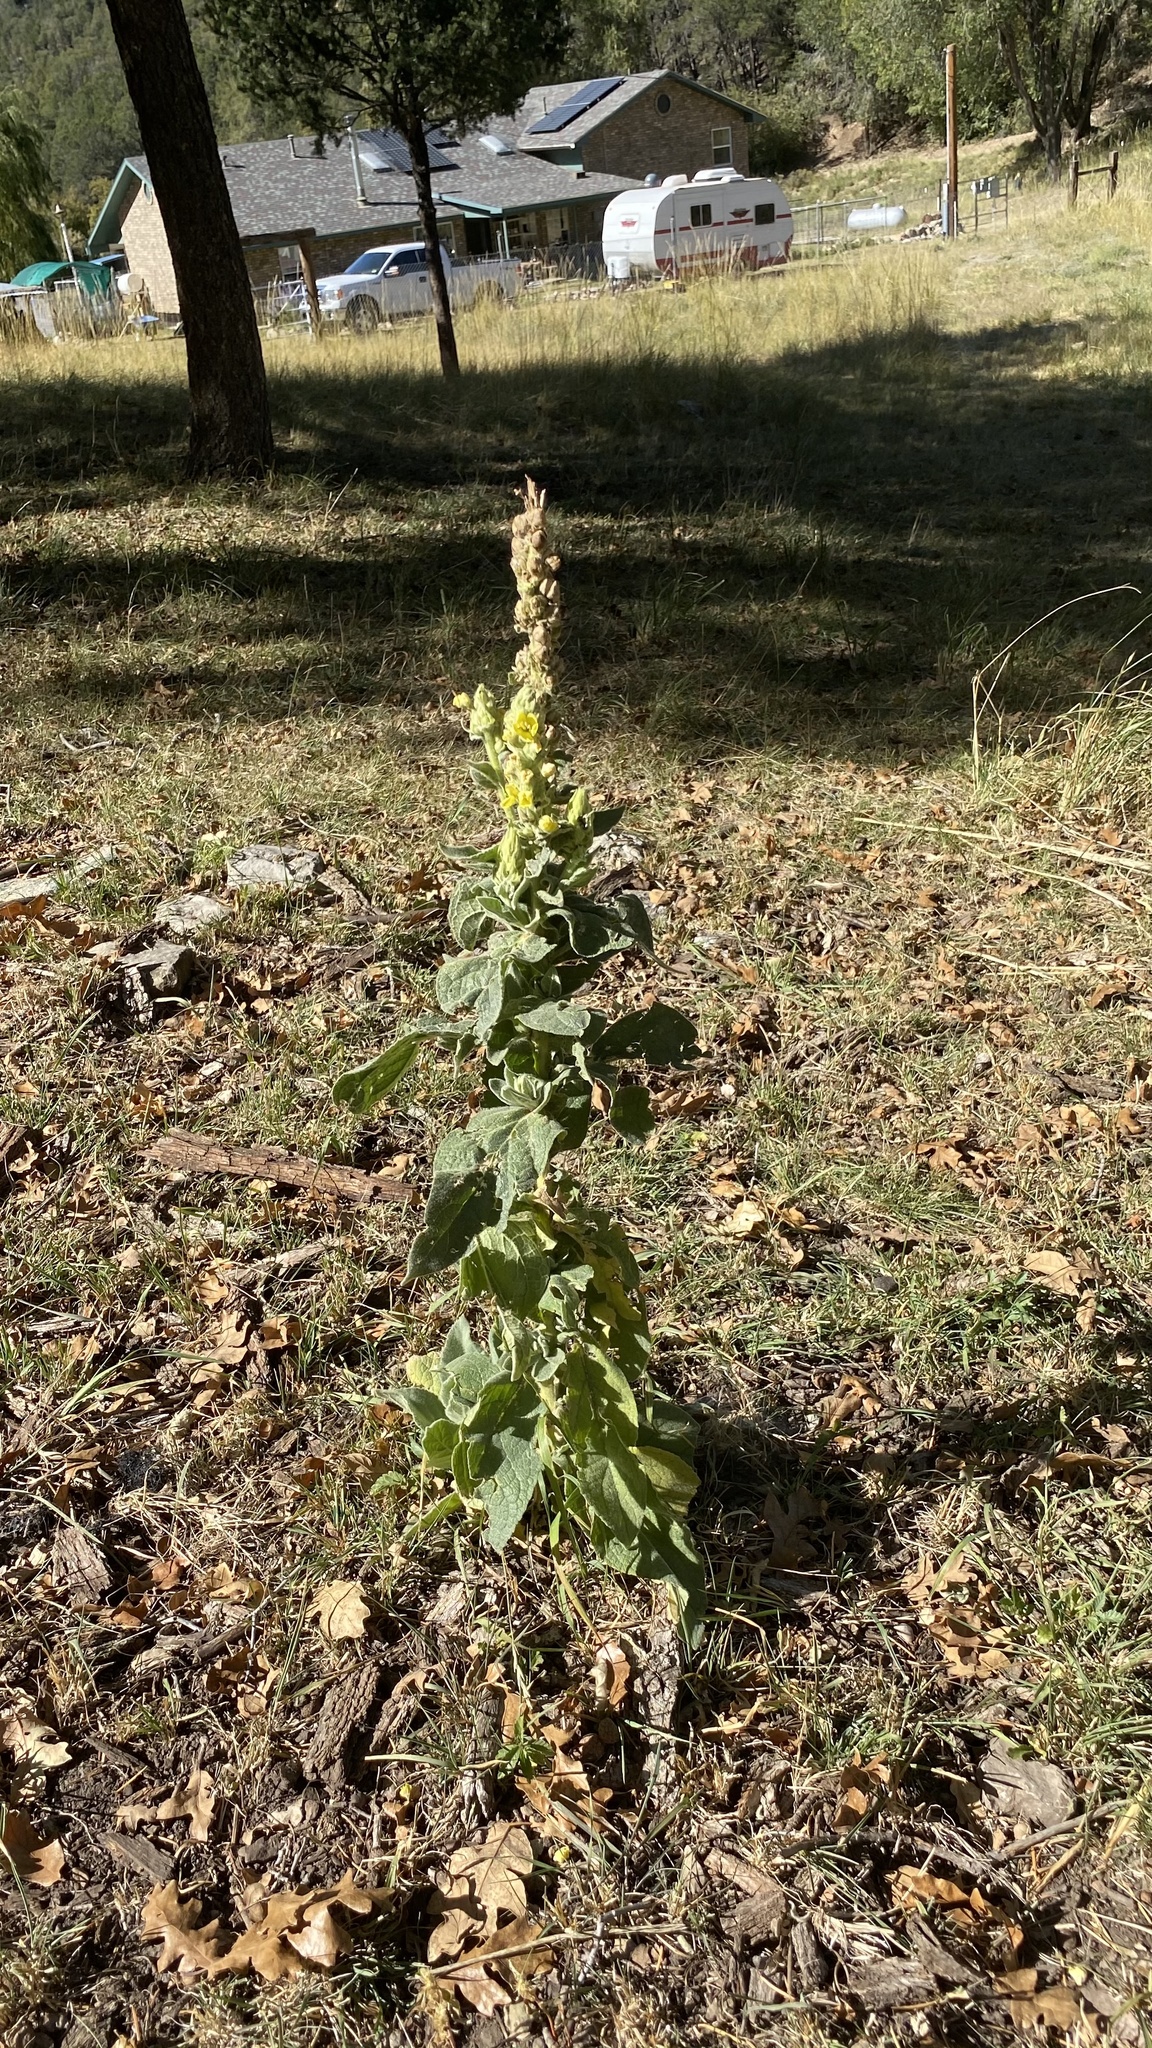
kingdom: Plantae
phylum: Tracheophyta
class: Magnoliopsida
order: Lamiales
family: Scrophulariaceae
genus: Verbascum
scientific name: Verbascum thapsus
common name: Common mullein
